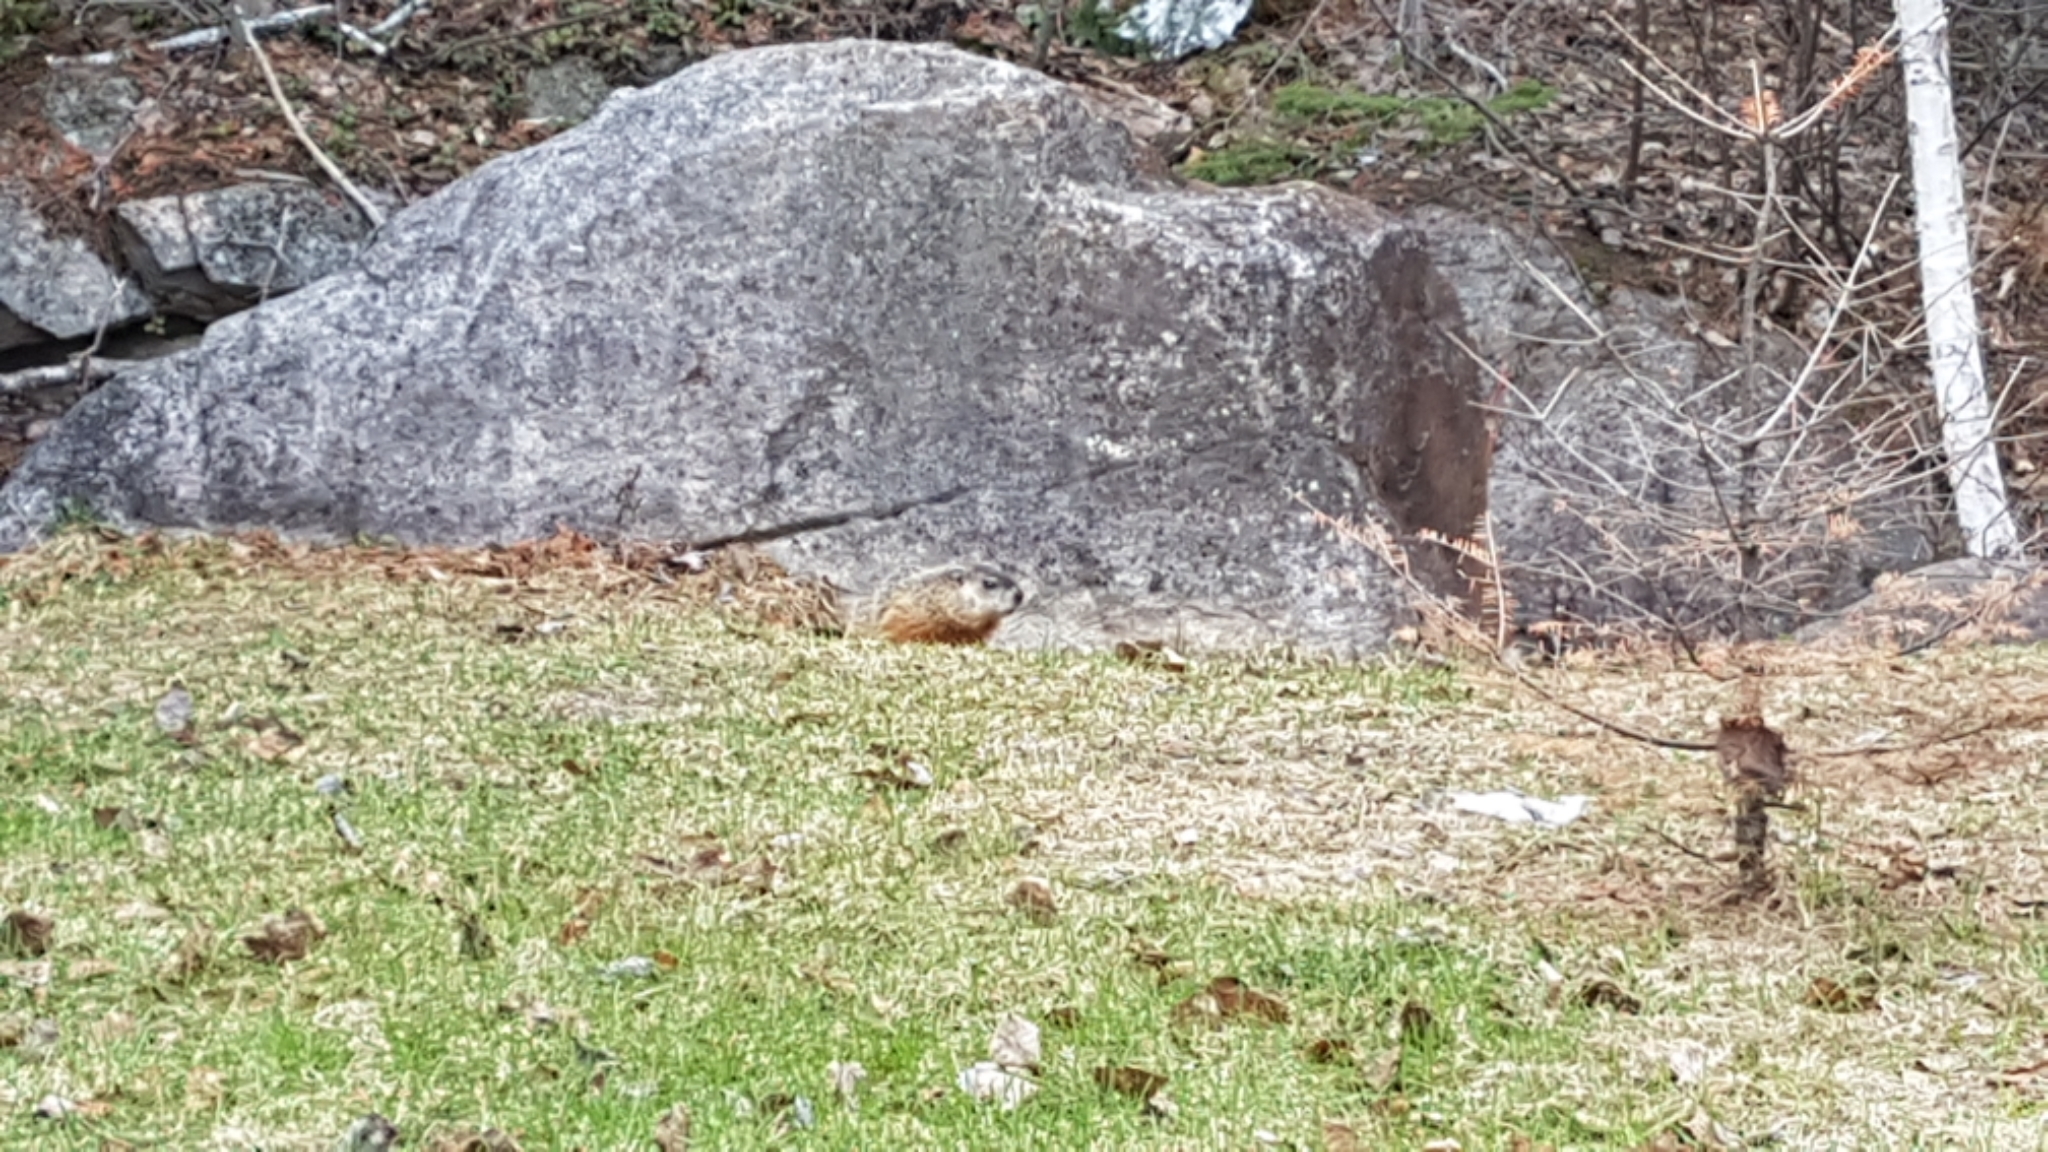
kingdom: Animalia
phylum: Chordata
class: Mammalia
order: Rodentia
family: Sciuridae
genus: Marmota
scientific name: Marmota monax
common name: Groundhog
